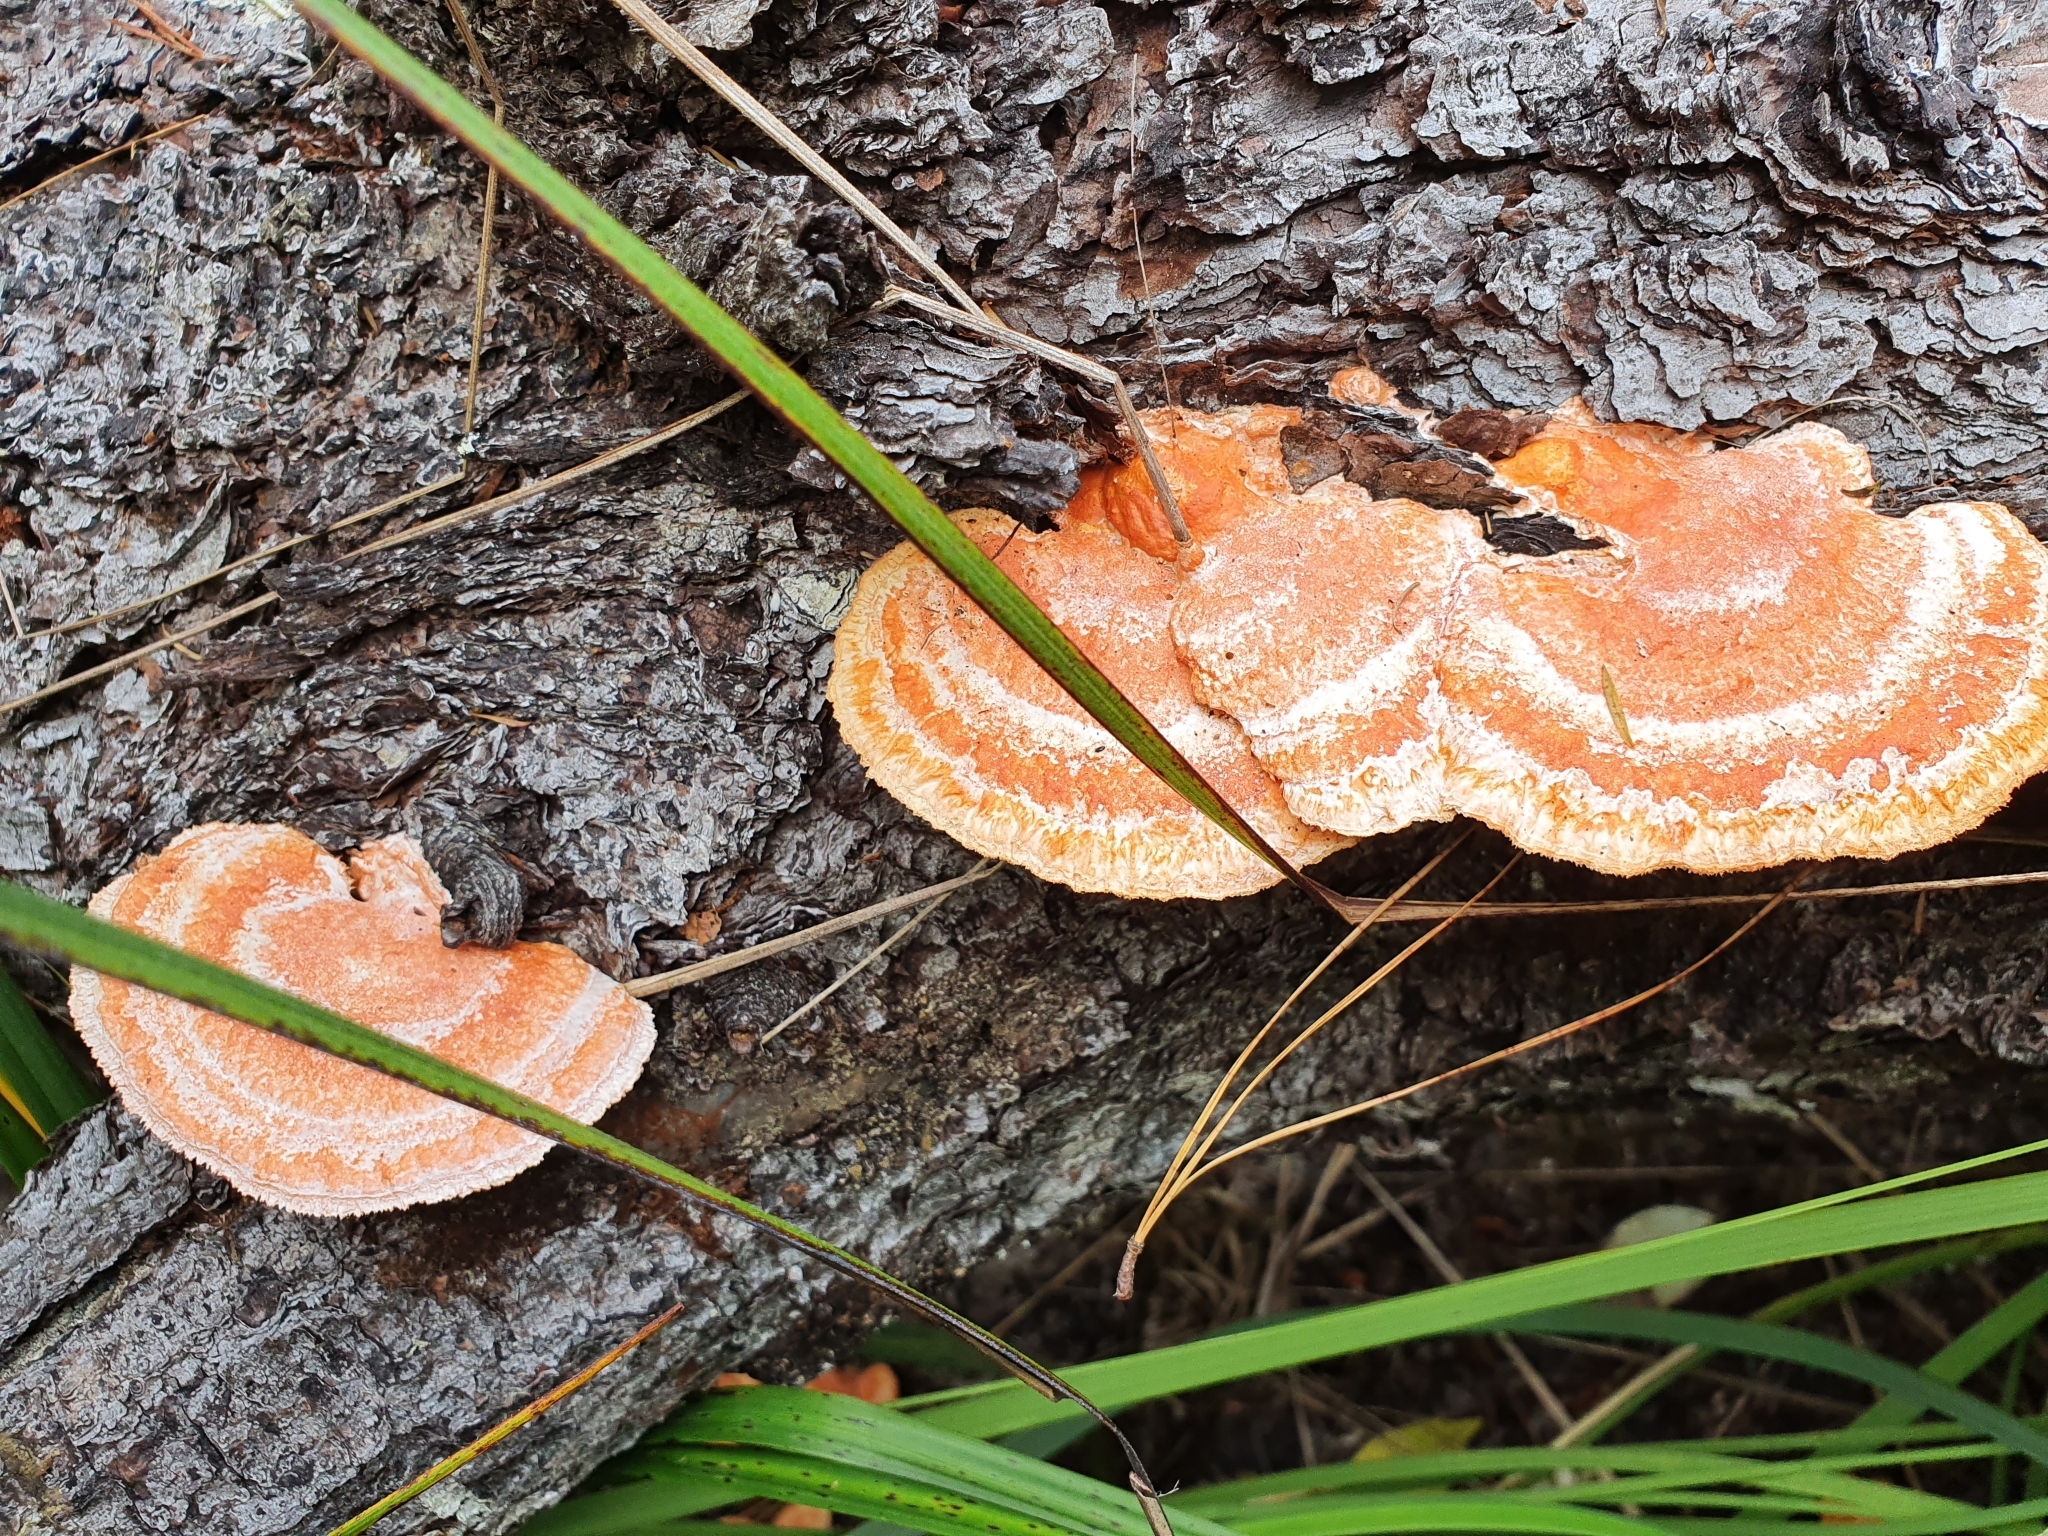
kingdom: Fungi
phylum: Basidiomycota
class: Agaricomycetes
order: Polyporales
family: Polyporaceae
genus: Trametes
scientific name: Trametes coccinea
